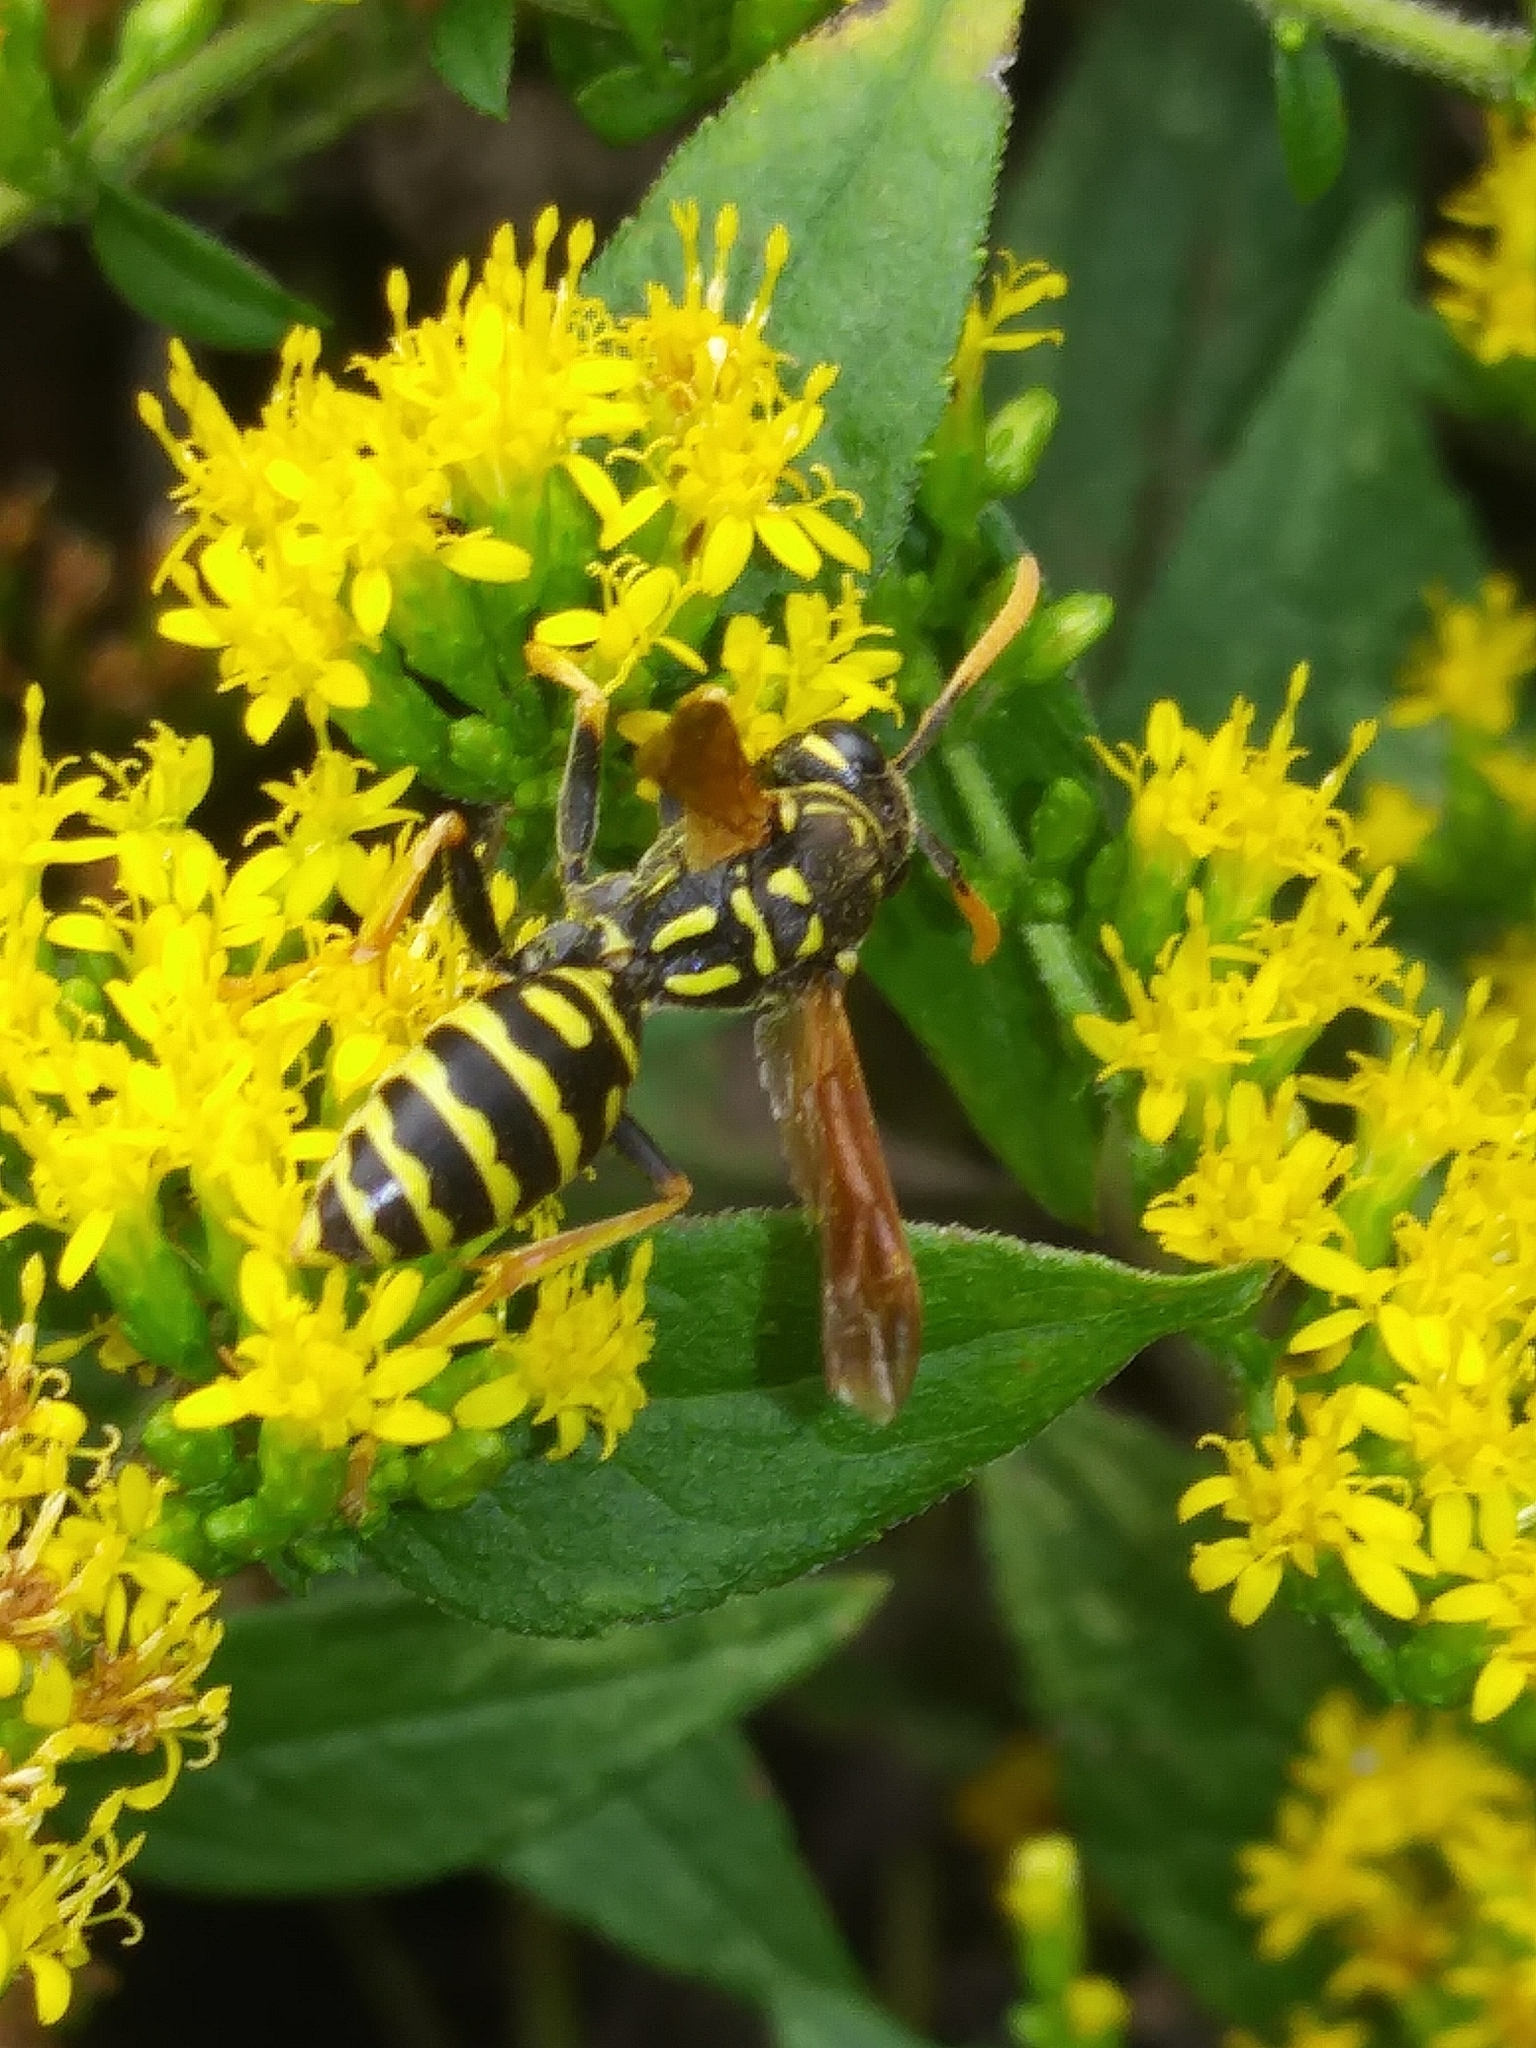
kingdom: Animalia
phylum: Arthropoda
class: Insecta
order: Hymenoptera
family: Eumenidae
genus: Polistes
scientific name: Polistes dominula
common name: Paper wasp
